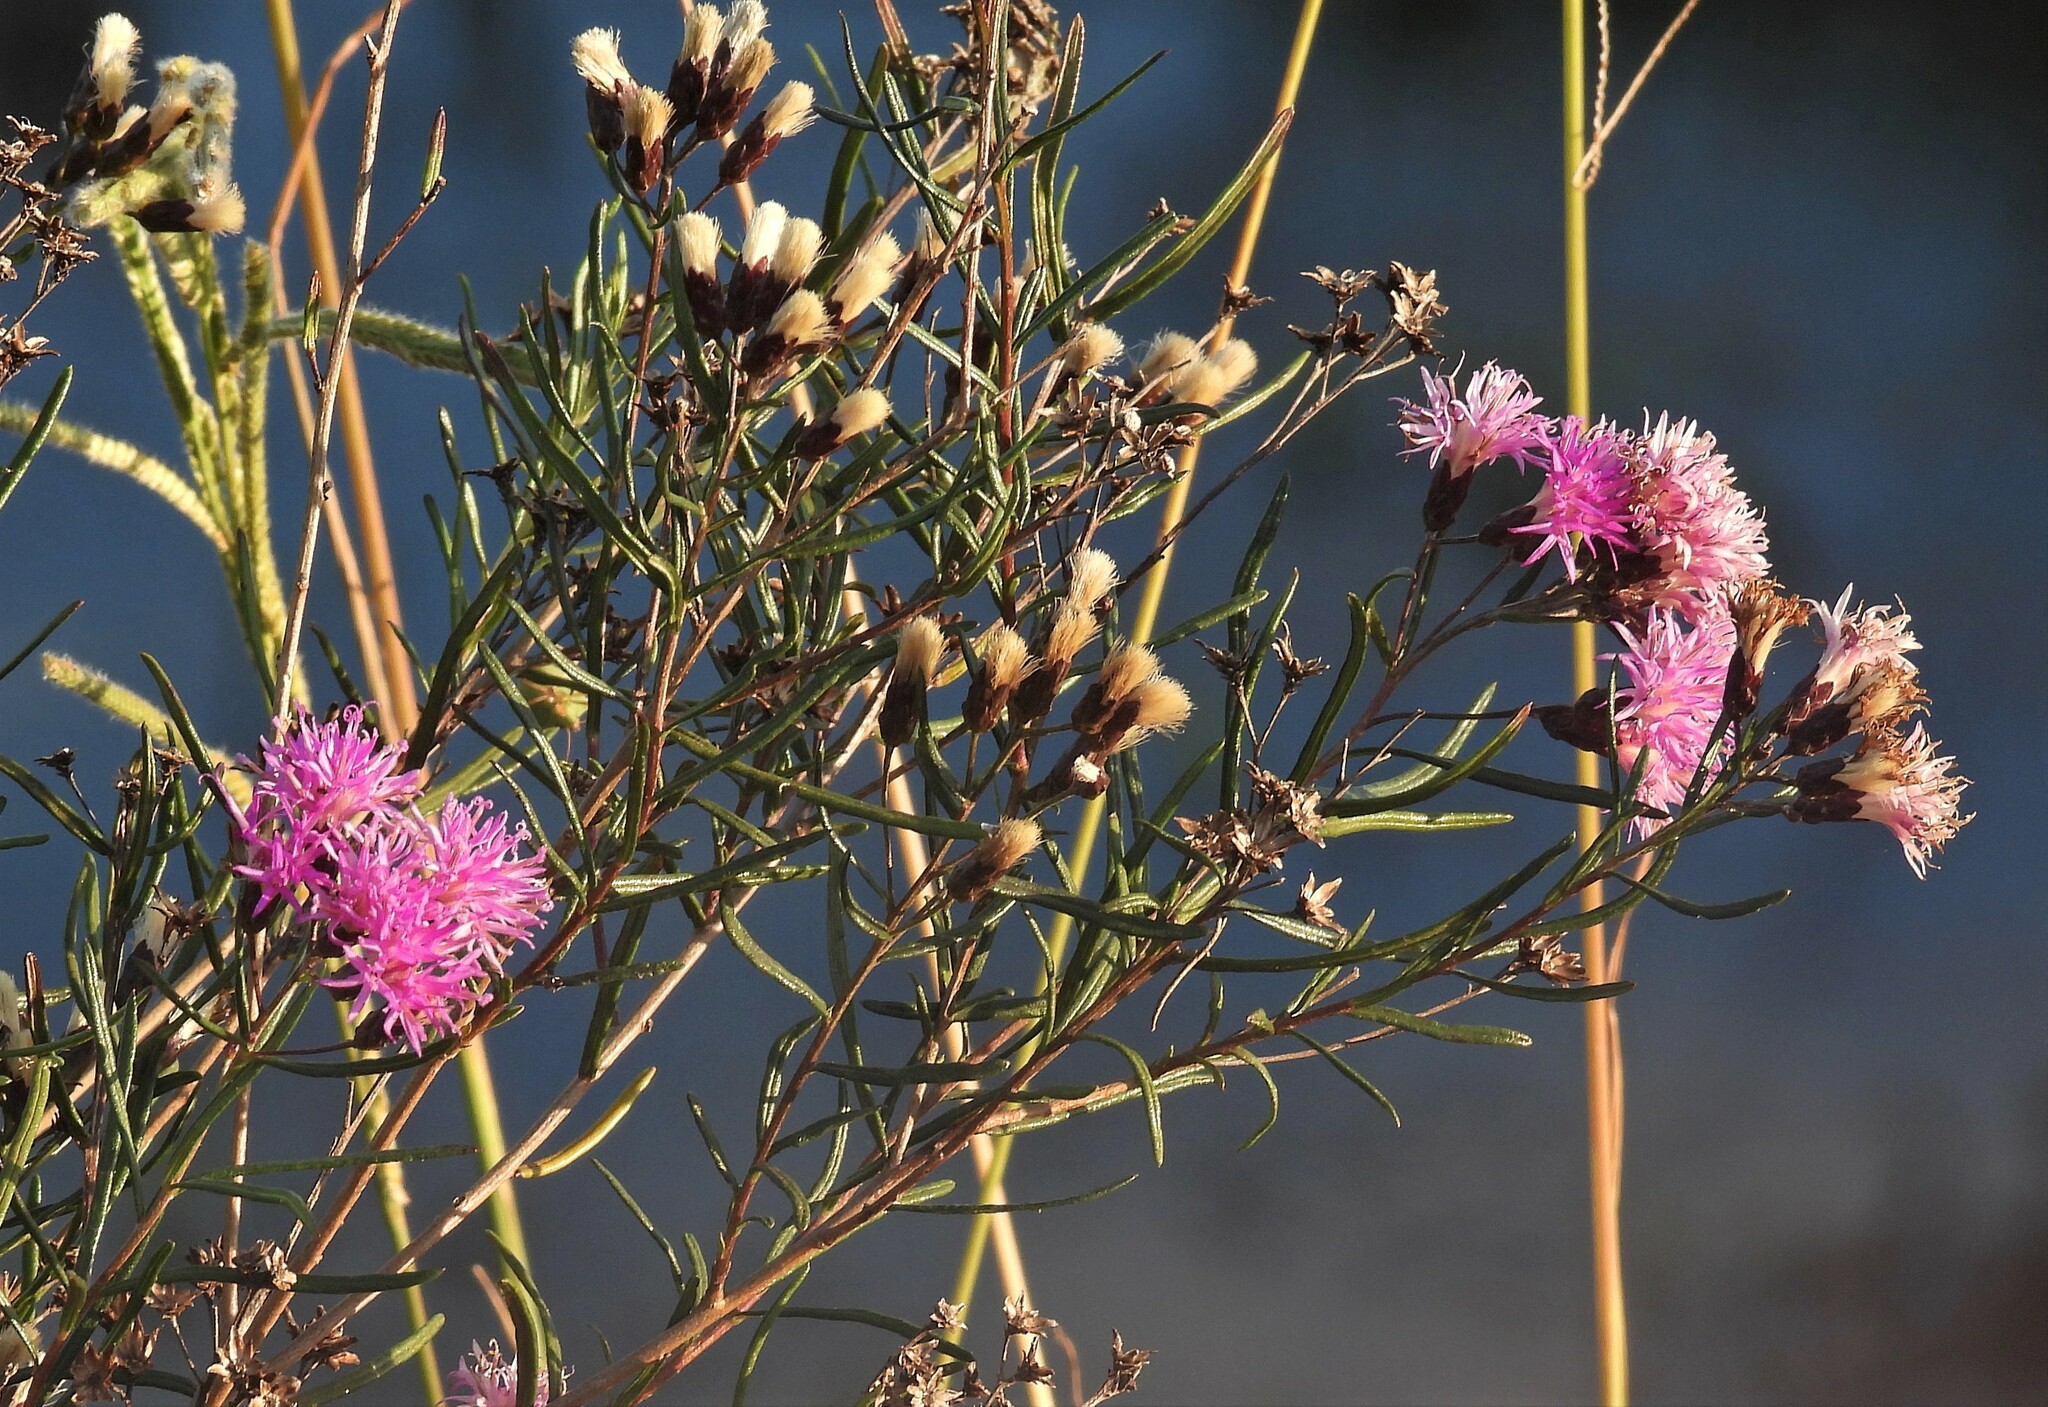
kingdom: Plantae
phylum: Tracheophyta
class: Magnoliopsida
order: Asterales
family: Asteraceae
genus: Vernonanthura
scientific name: Vernonanthura nudiflora
